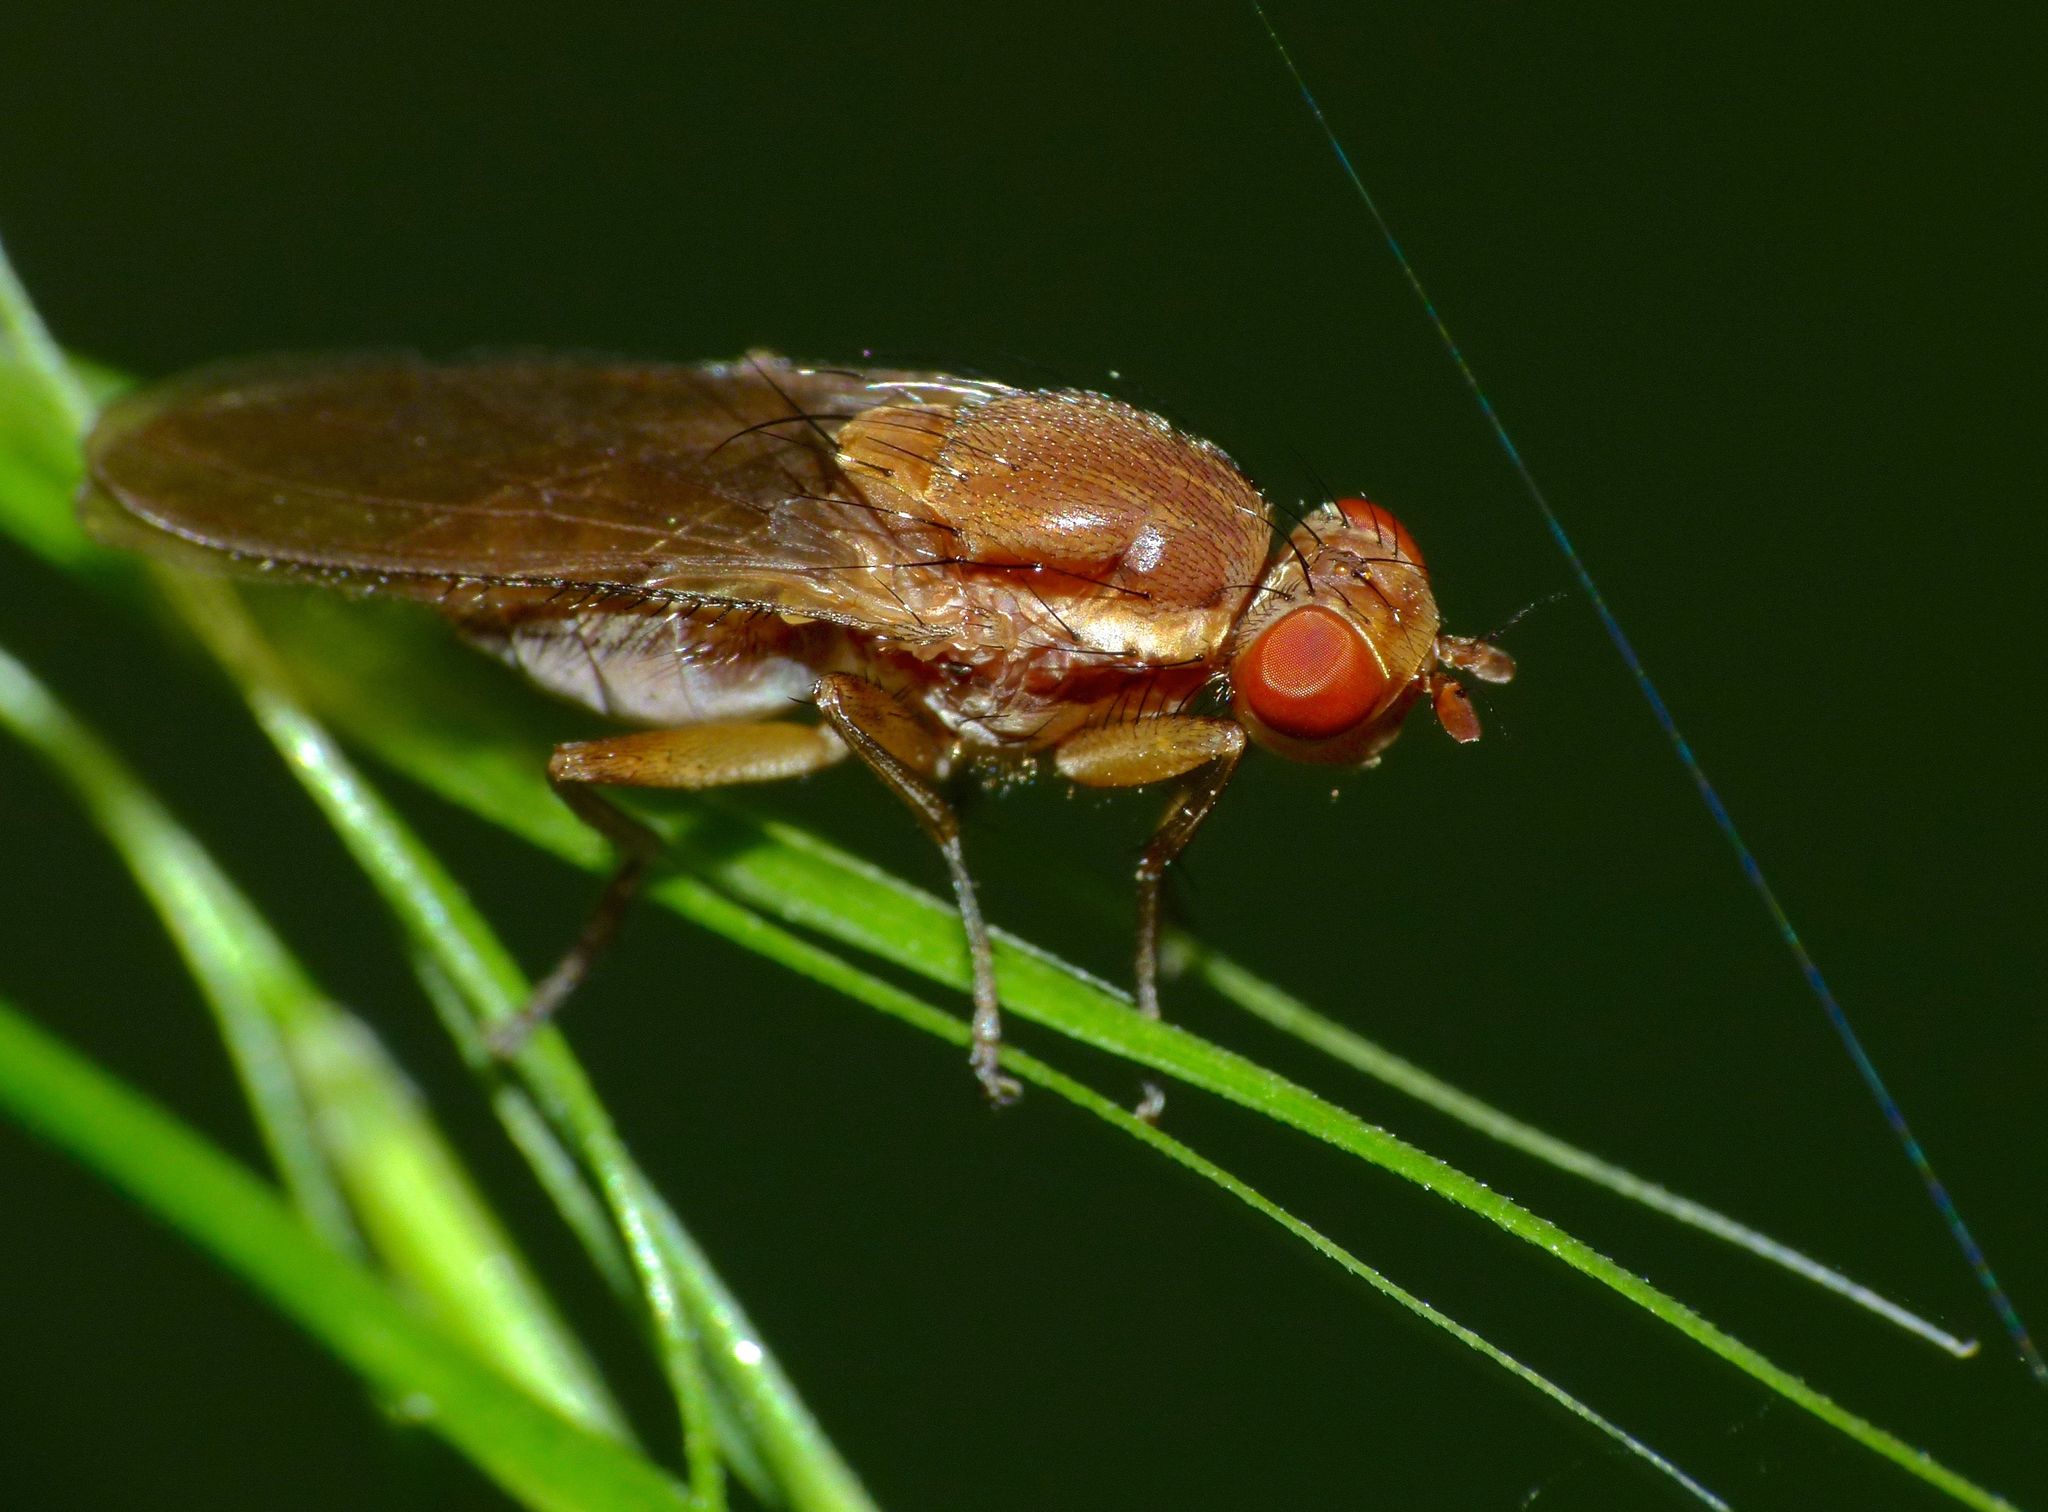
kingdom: Animalia
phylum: Arthropoda
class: Insecta
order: Diptera
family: Helosciomyzidae
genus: Napaeosciomyza
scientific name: Napaeosciomyza spinicosta
